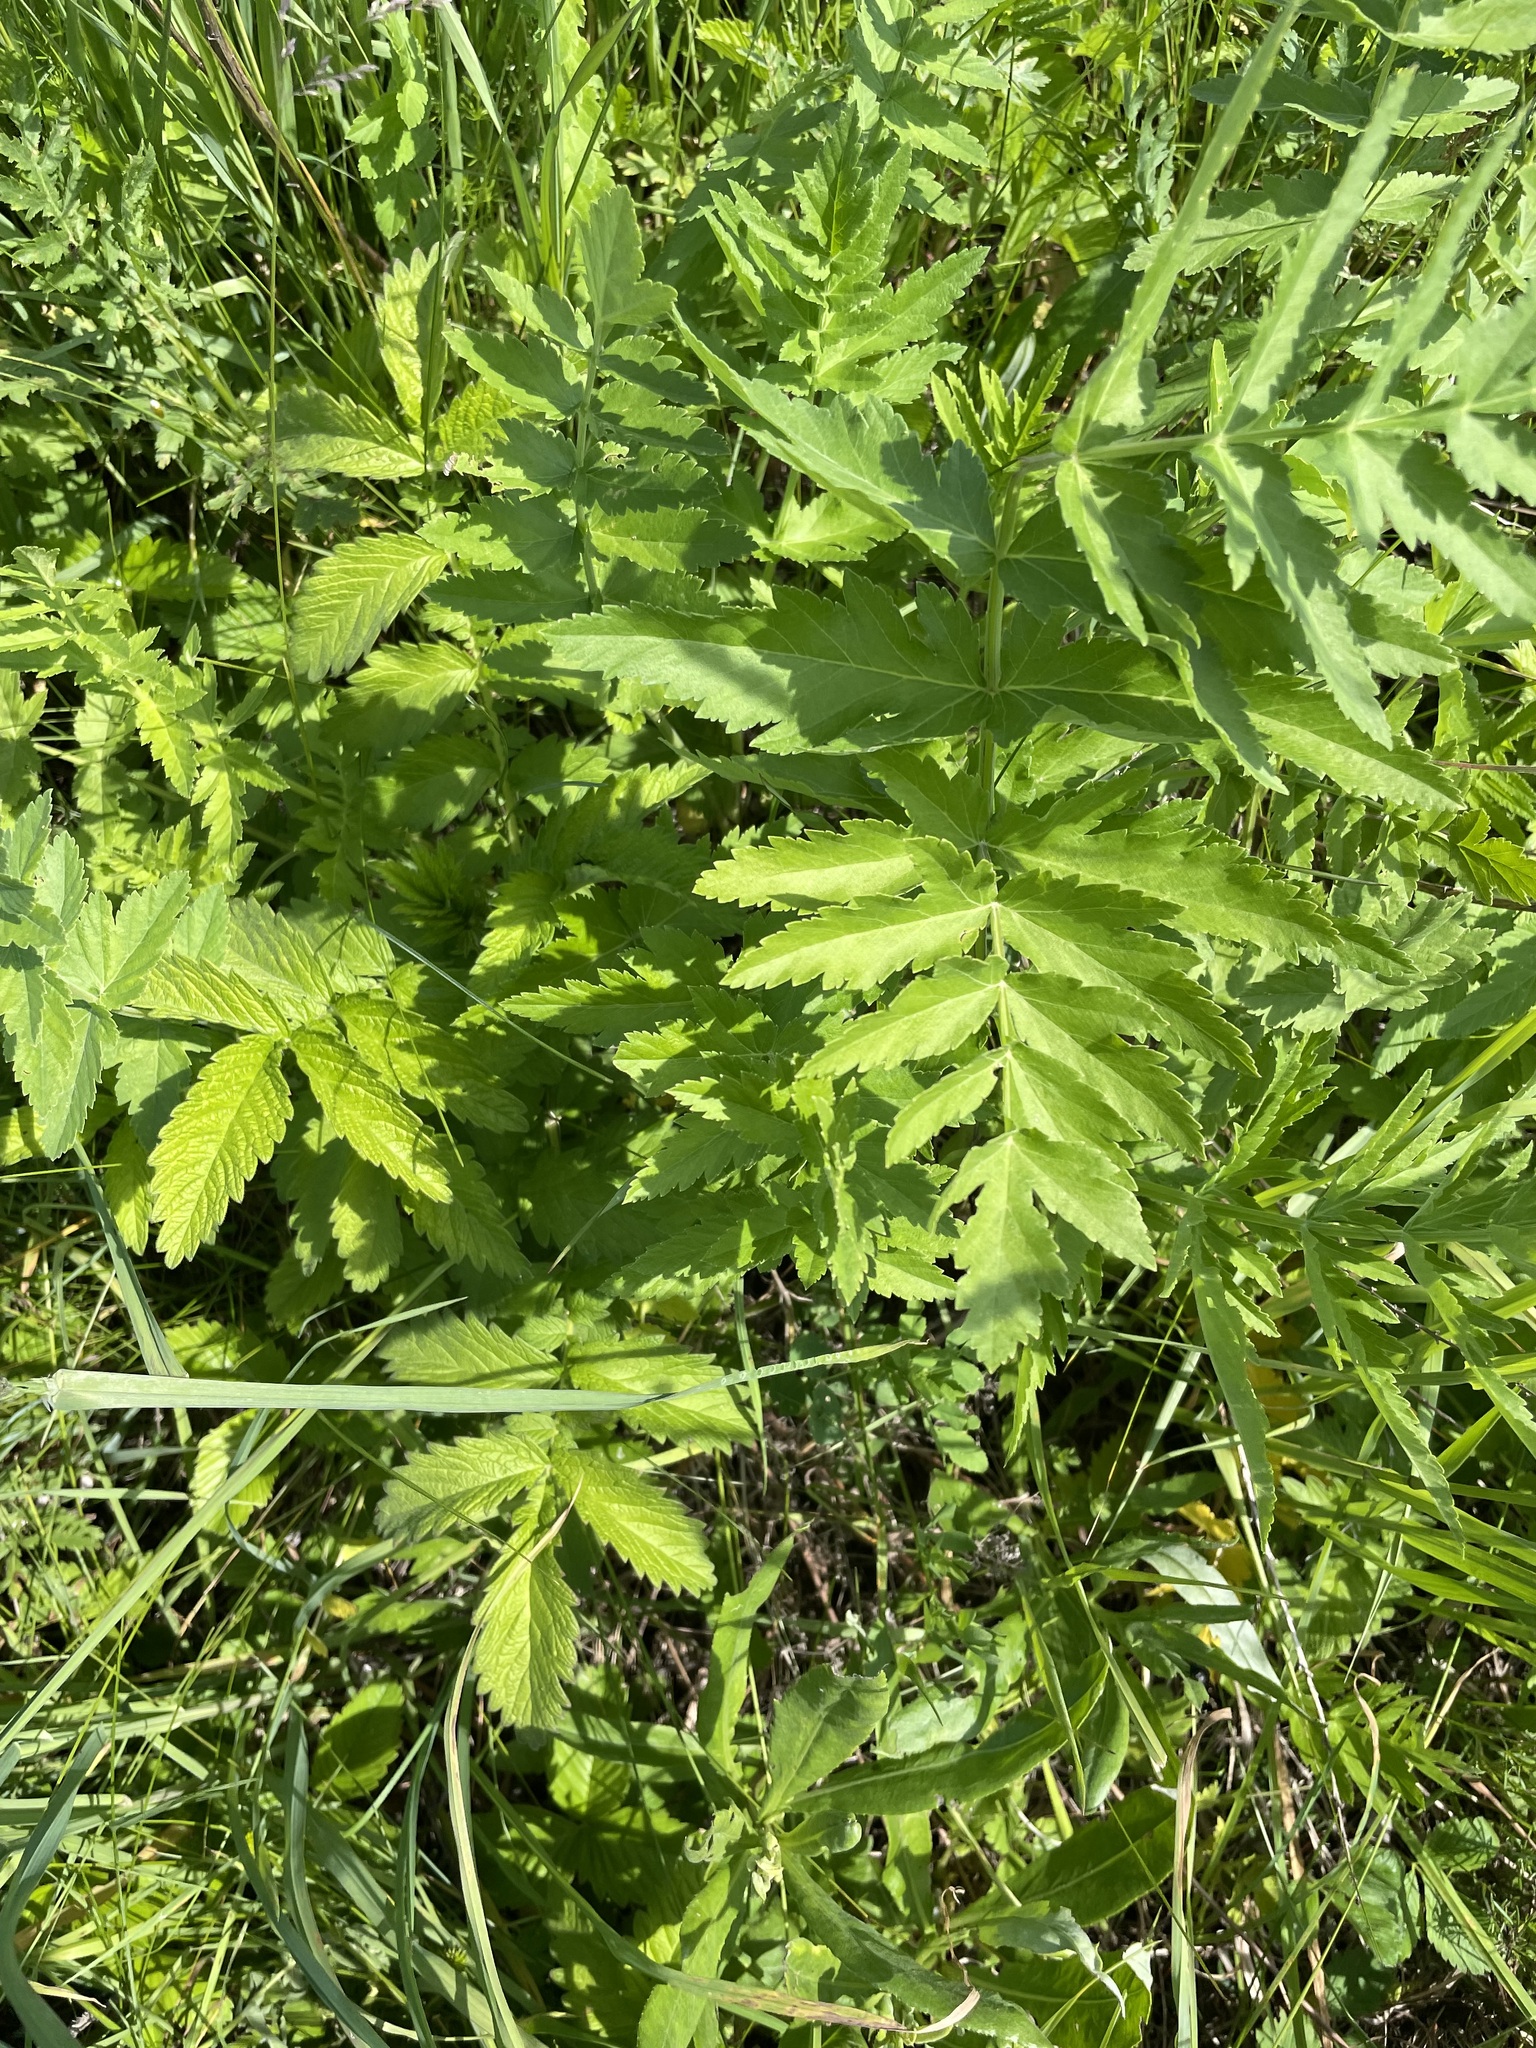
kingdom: Plantae
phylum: Tracheophyta
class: Magnoliopsida
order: Apiales
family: Apiaceae
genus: Pastinaca
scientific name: Pastinaca sativa
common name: Wild parsnip
